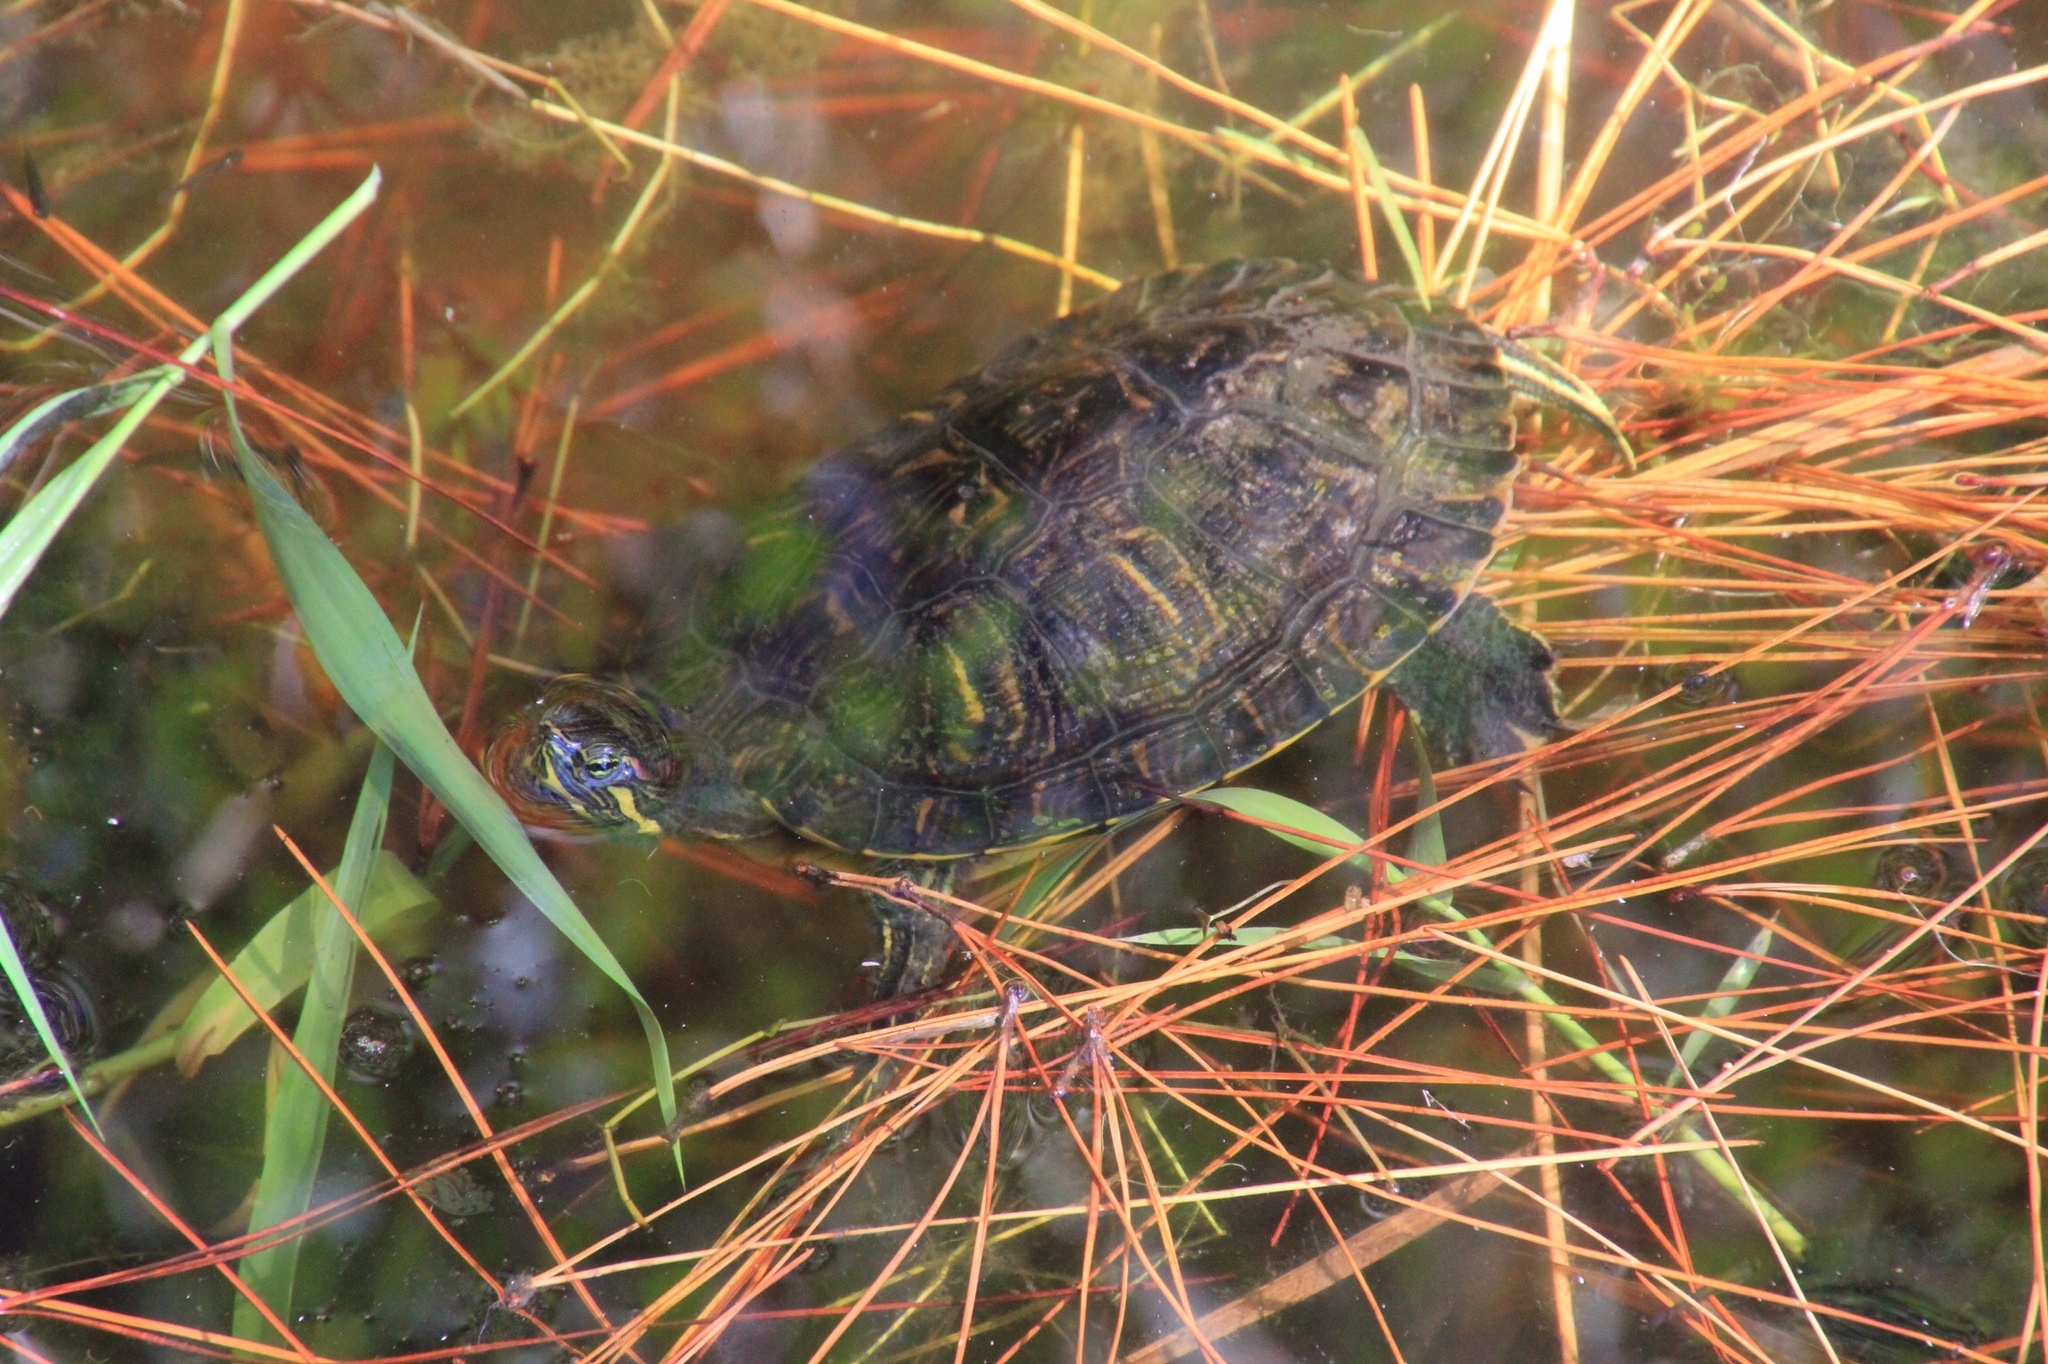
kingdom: Animalia
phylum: Chordata
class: Testudines
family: Emydidae
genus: Trachemys
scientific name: Trachemys scripta
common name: Slider
